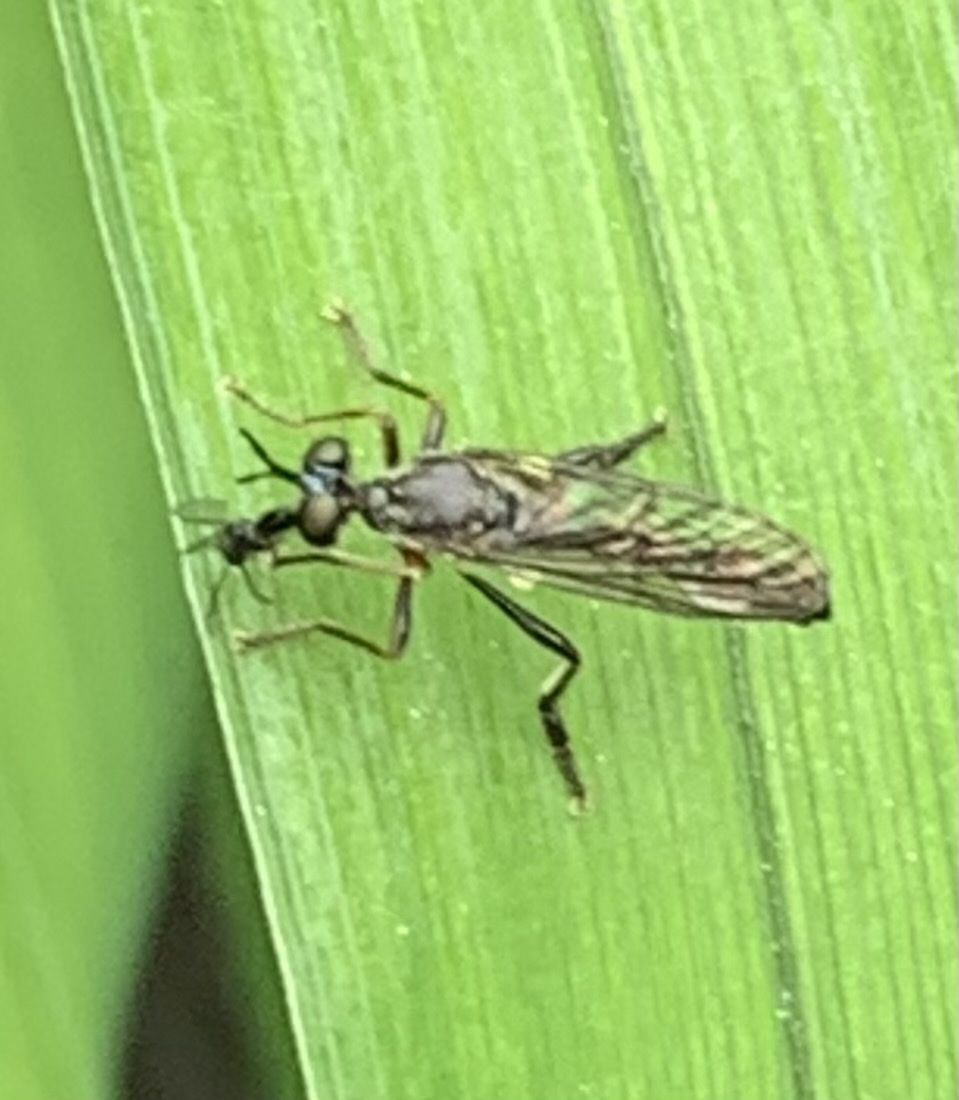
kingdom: Animalia
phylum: Arthropoda
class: Insecta
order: Diptera
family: Asilidae
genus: Dioctria
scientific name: Dioctria hyalipennis
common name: Stripe-legged robberfly
